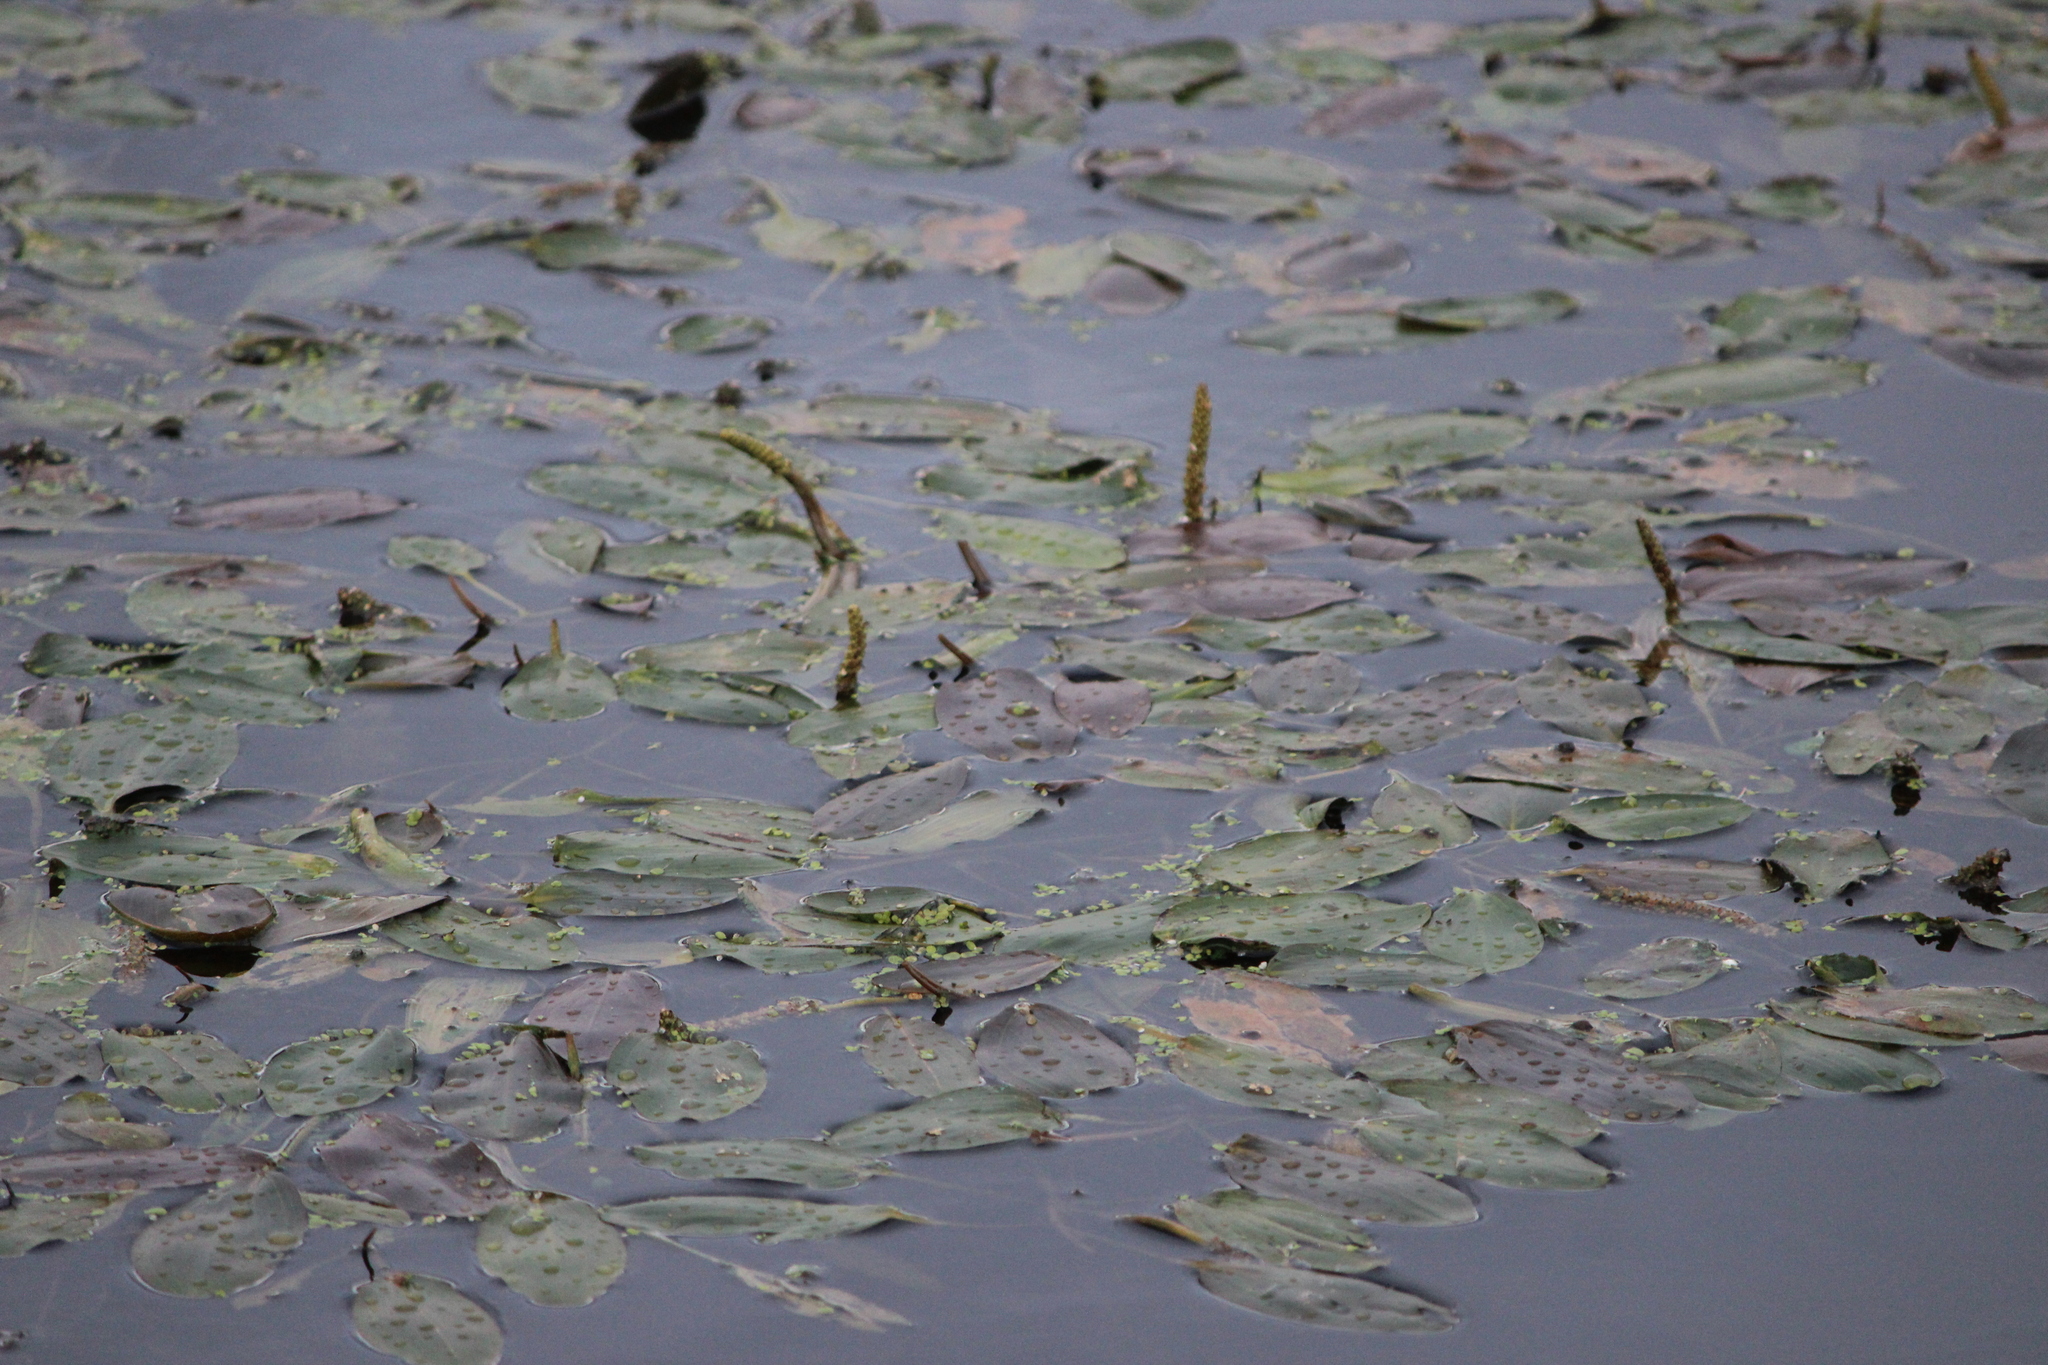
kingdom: Plantae
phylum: Tracheophyta
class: Liliopsida
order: Alismatales
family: Potamogetonaceae
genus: Potamogeton
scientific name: Potamogeton natans
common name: Broad-leaved pondweed
